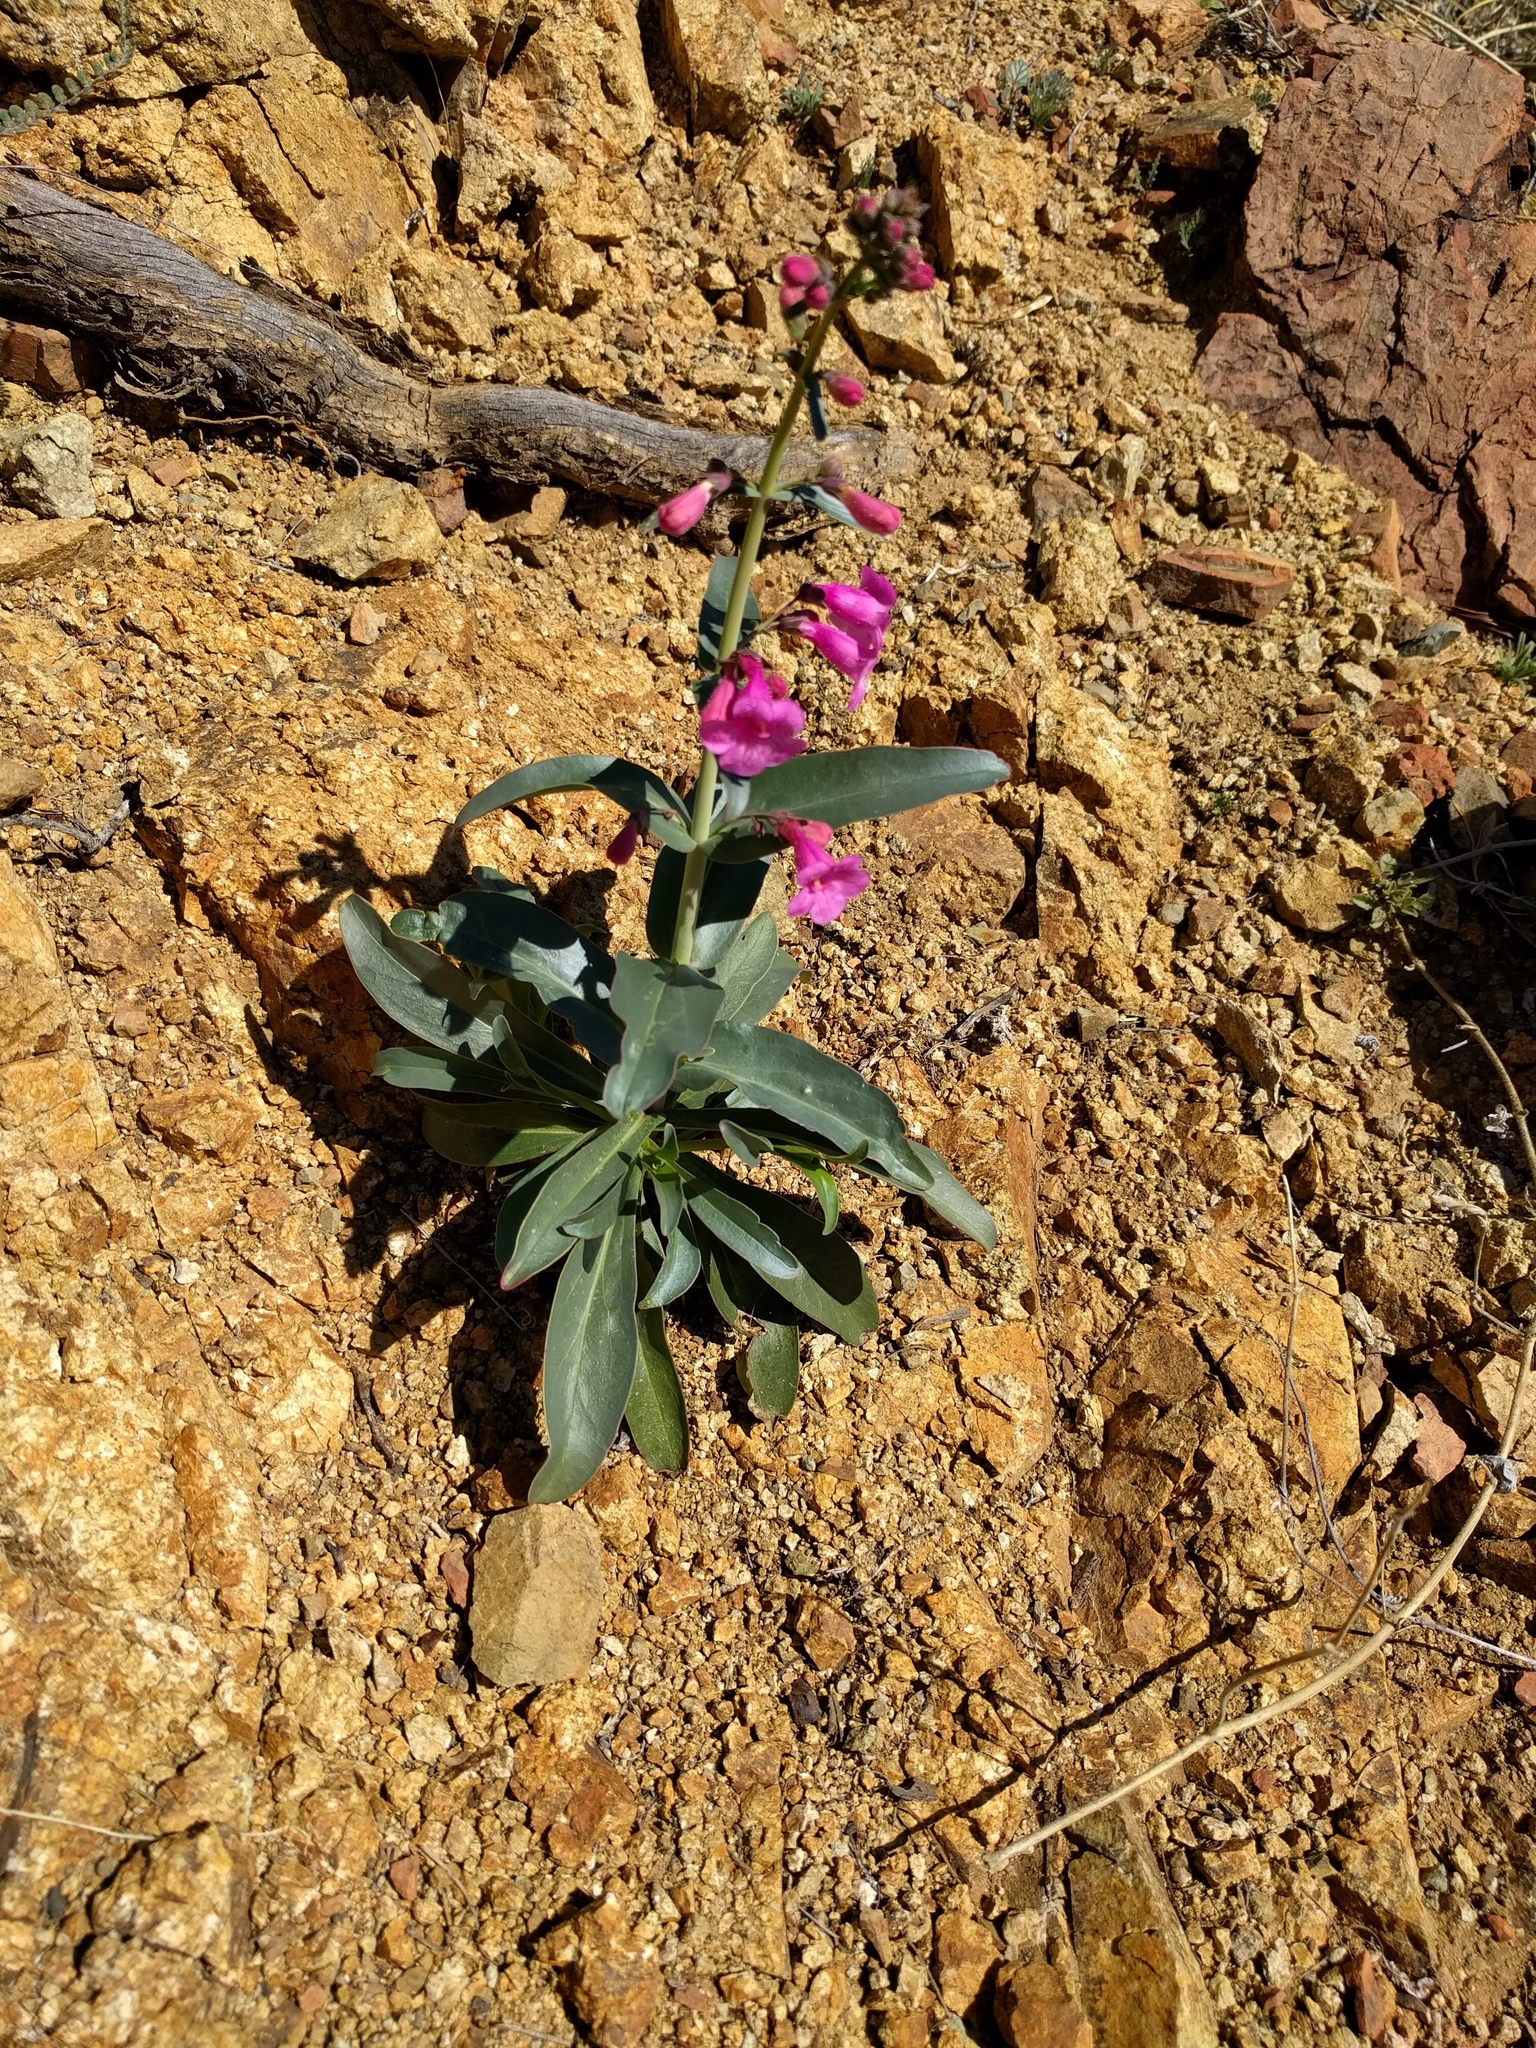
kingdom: Plantae
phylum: Tracheophyta
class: Magnoliopsida
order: Lamiales
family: Plantaginaceae
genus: Penstemon
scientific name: Penstemon parryi
